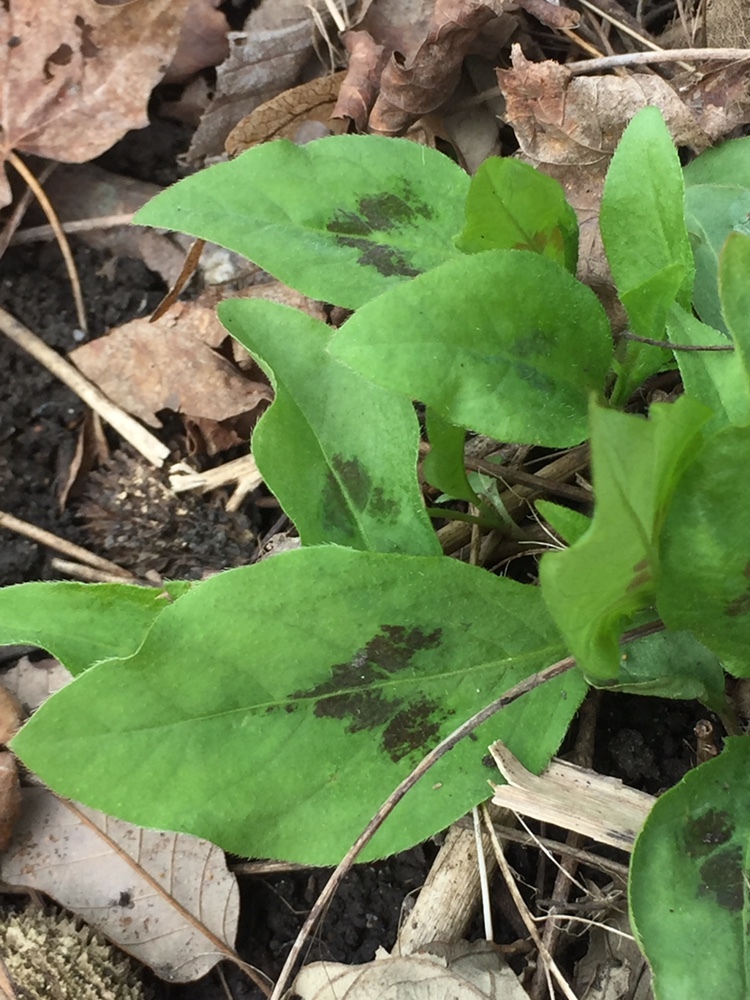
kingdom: Plantae
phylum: Tracheophyta
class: Magnoliopsida
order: Caryophyllales
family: Polygonaceae
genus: Persicaria
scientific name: Persicaria virginiana
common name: Jumpseed
